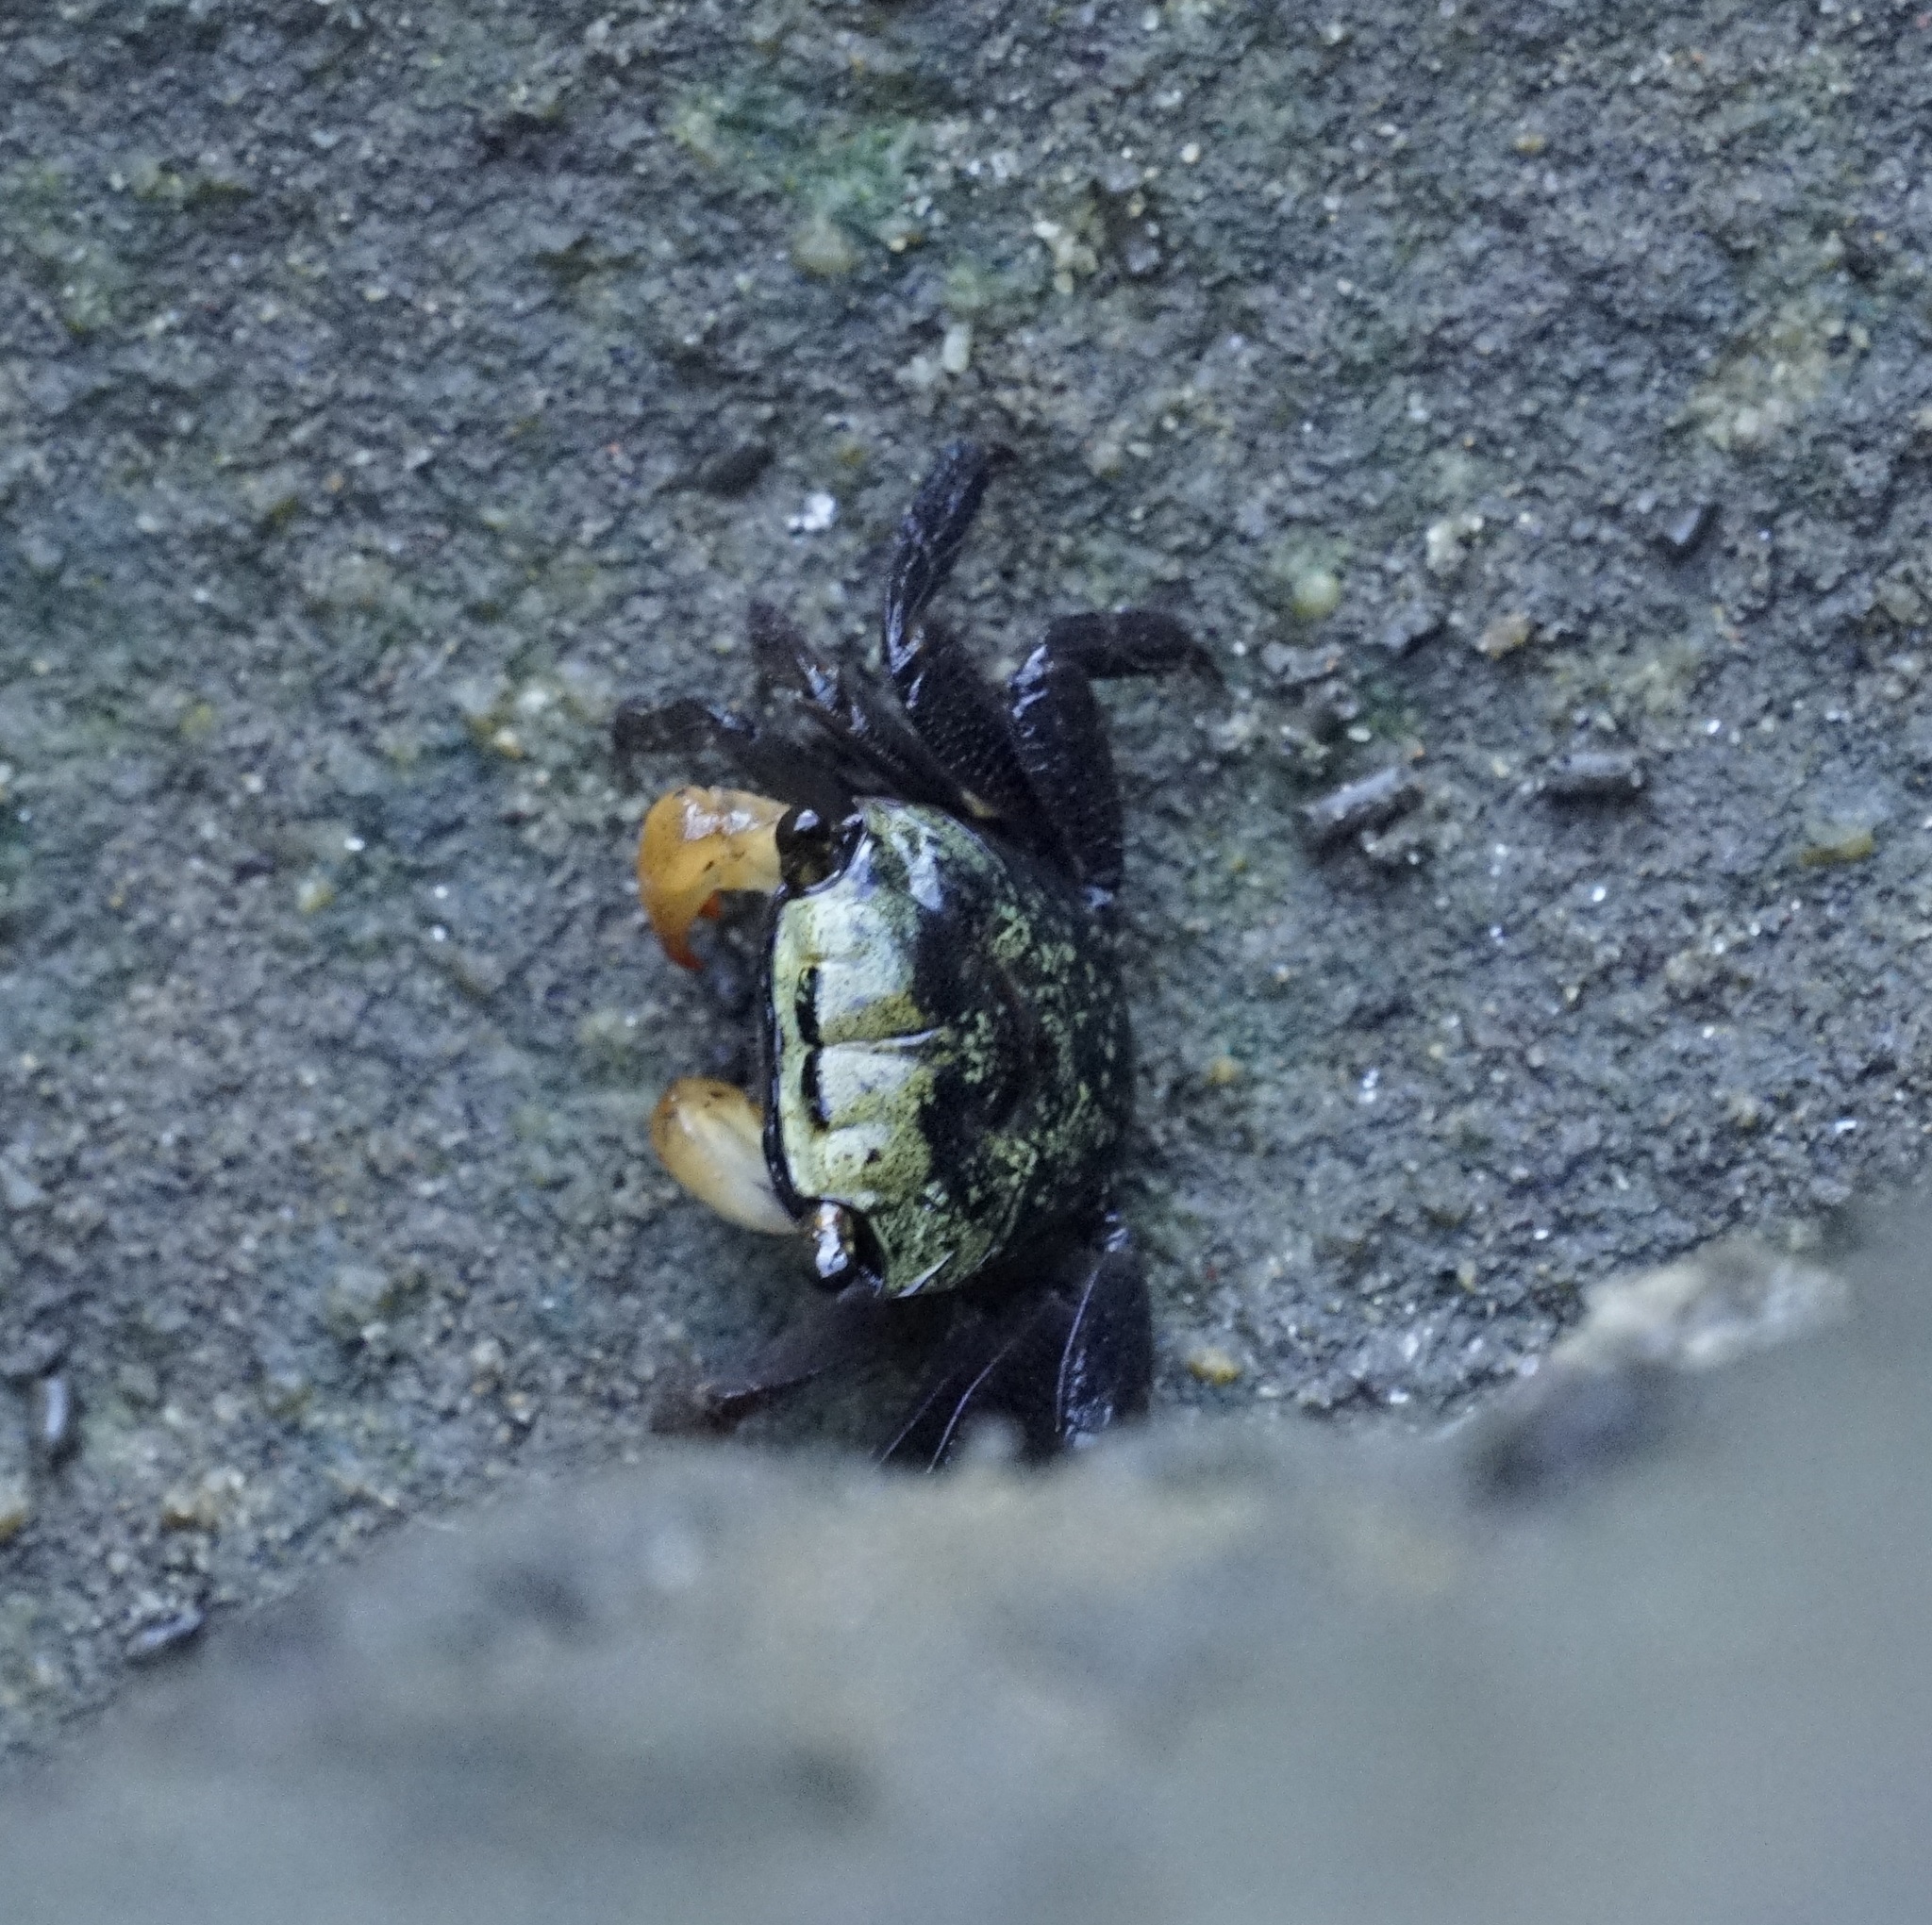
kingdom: Animalia
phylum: Arthropoda
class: Malacostraca
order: Decapoda
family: Sesarmidae
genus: Parasesarma
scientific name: Parasesarma erythodactylum
